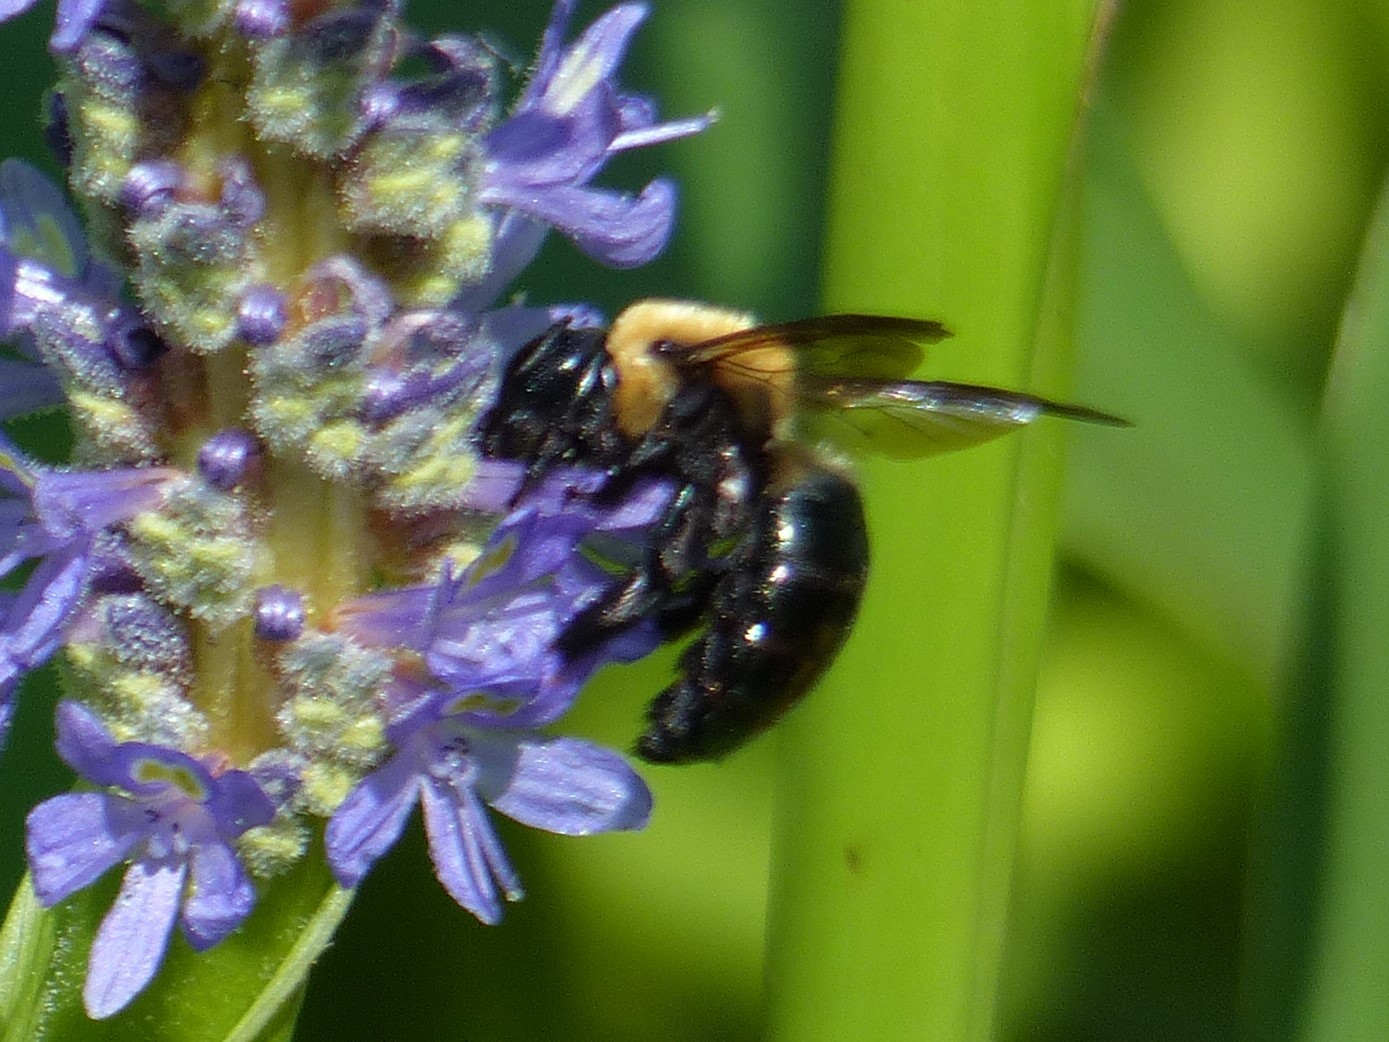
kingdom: Animalia
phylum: Arthropoda
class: Insecta
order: Hymenoptera
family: Apidae
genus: Xylocopa
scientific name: Xylocopa virginica
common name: Carpenter bee
